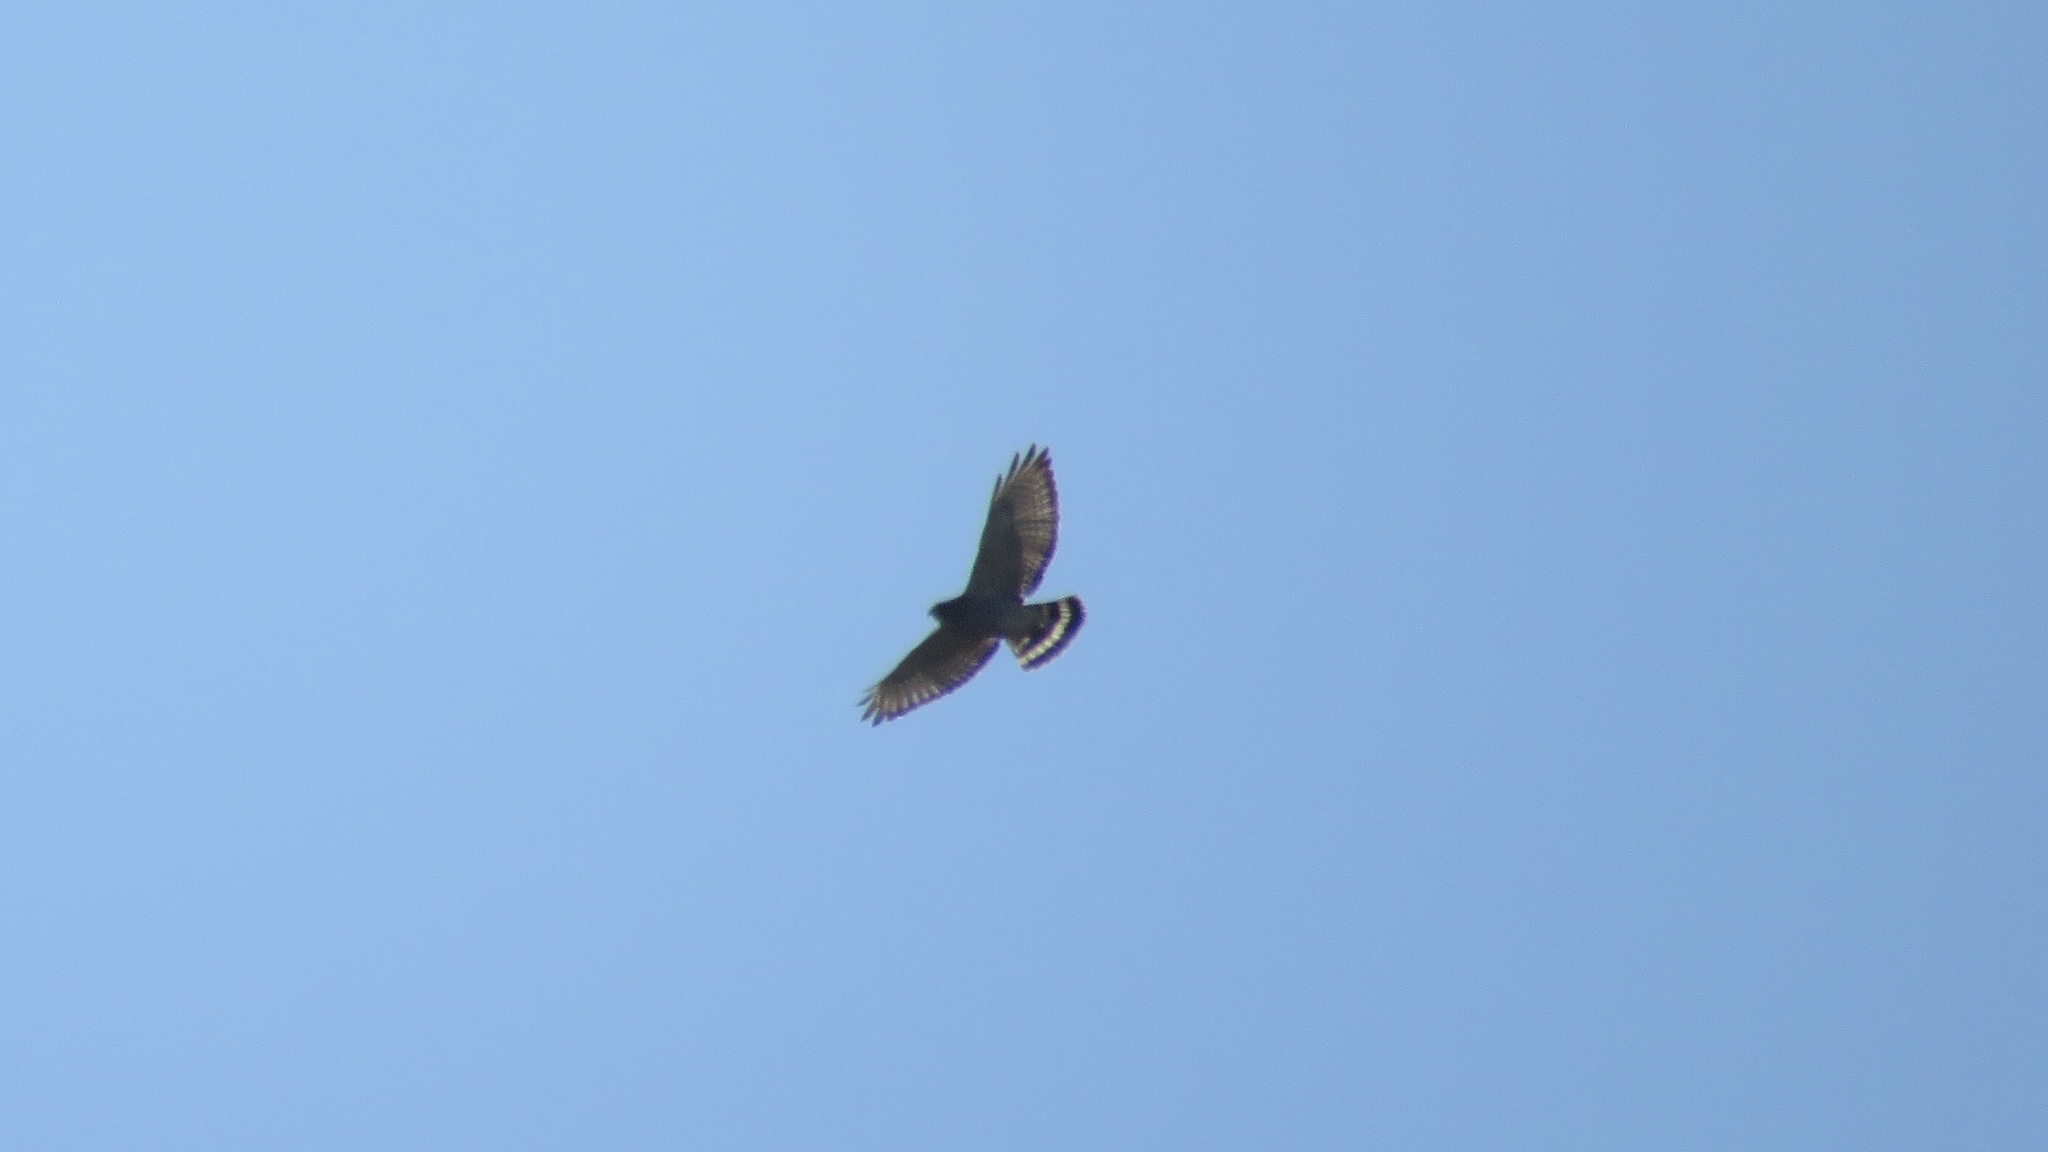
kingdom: Animalia
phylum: Chordata
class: Aves
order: Accipitriformes
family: Accipitridae
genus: Buteo
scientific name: Buteo platypterus
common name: Broad-winged hawk
